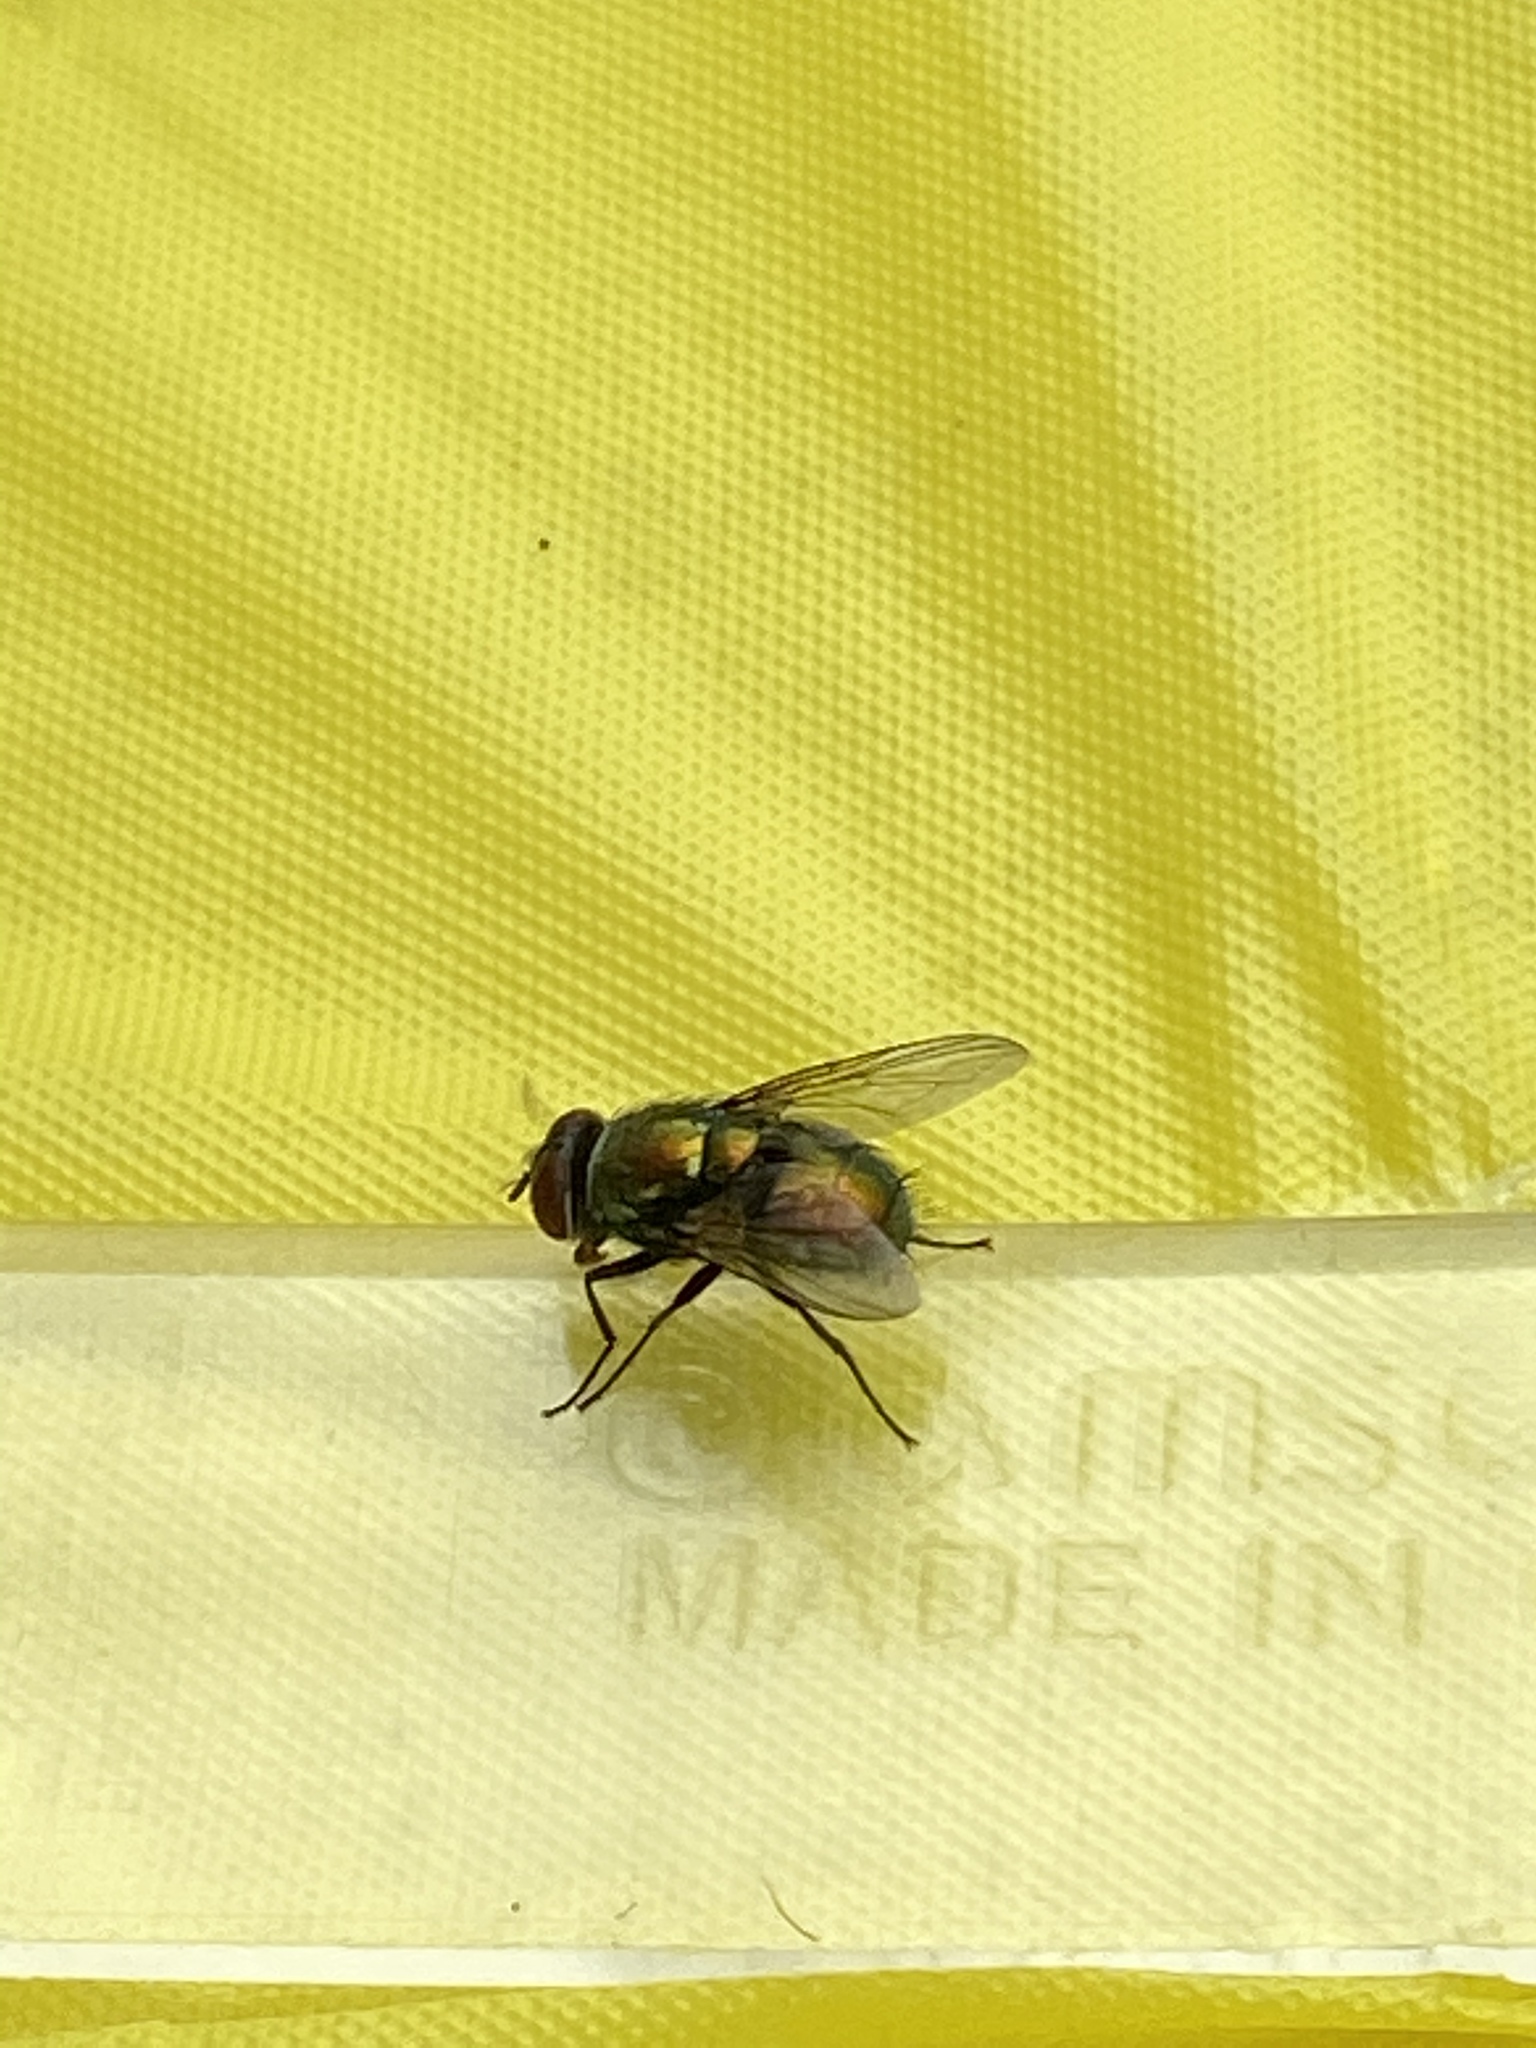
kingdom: Animalia
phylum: Arthropoda
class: Insecta
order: Diptera
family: Calliphoridae
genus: Lucilia
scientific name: Lucilia sericata
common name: Blow fly
